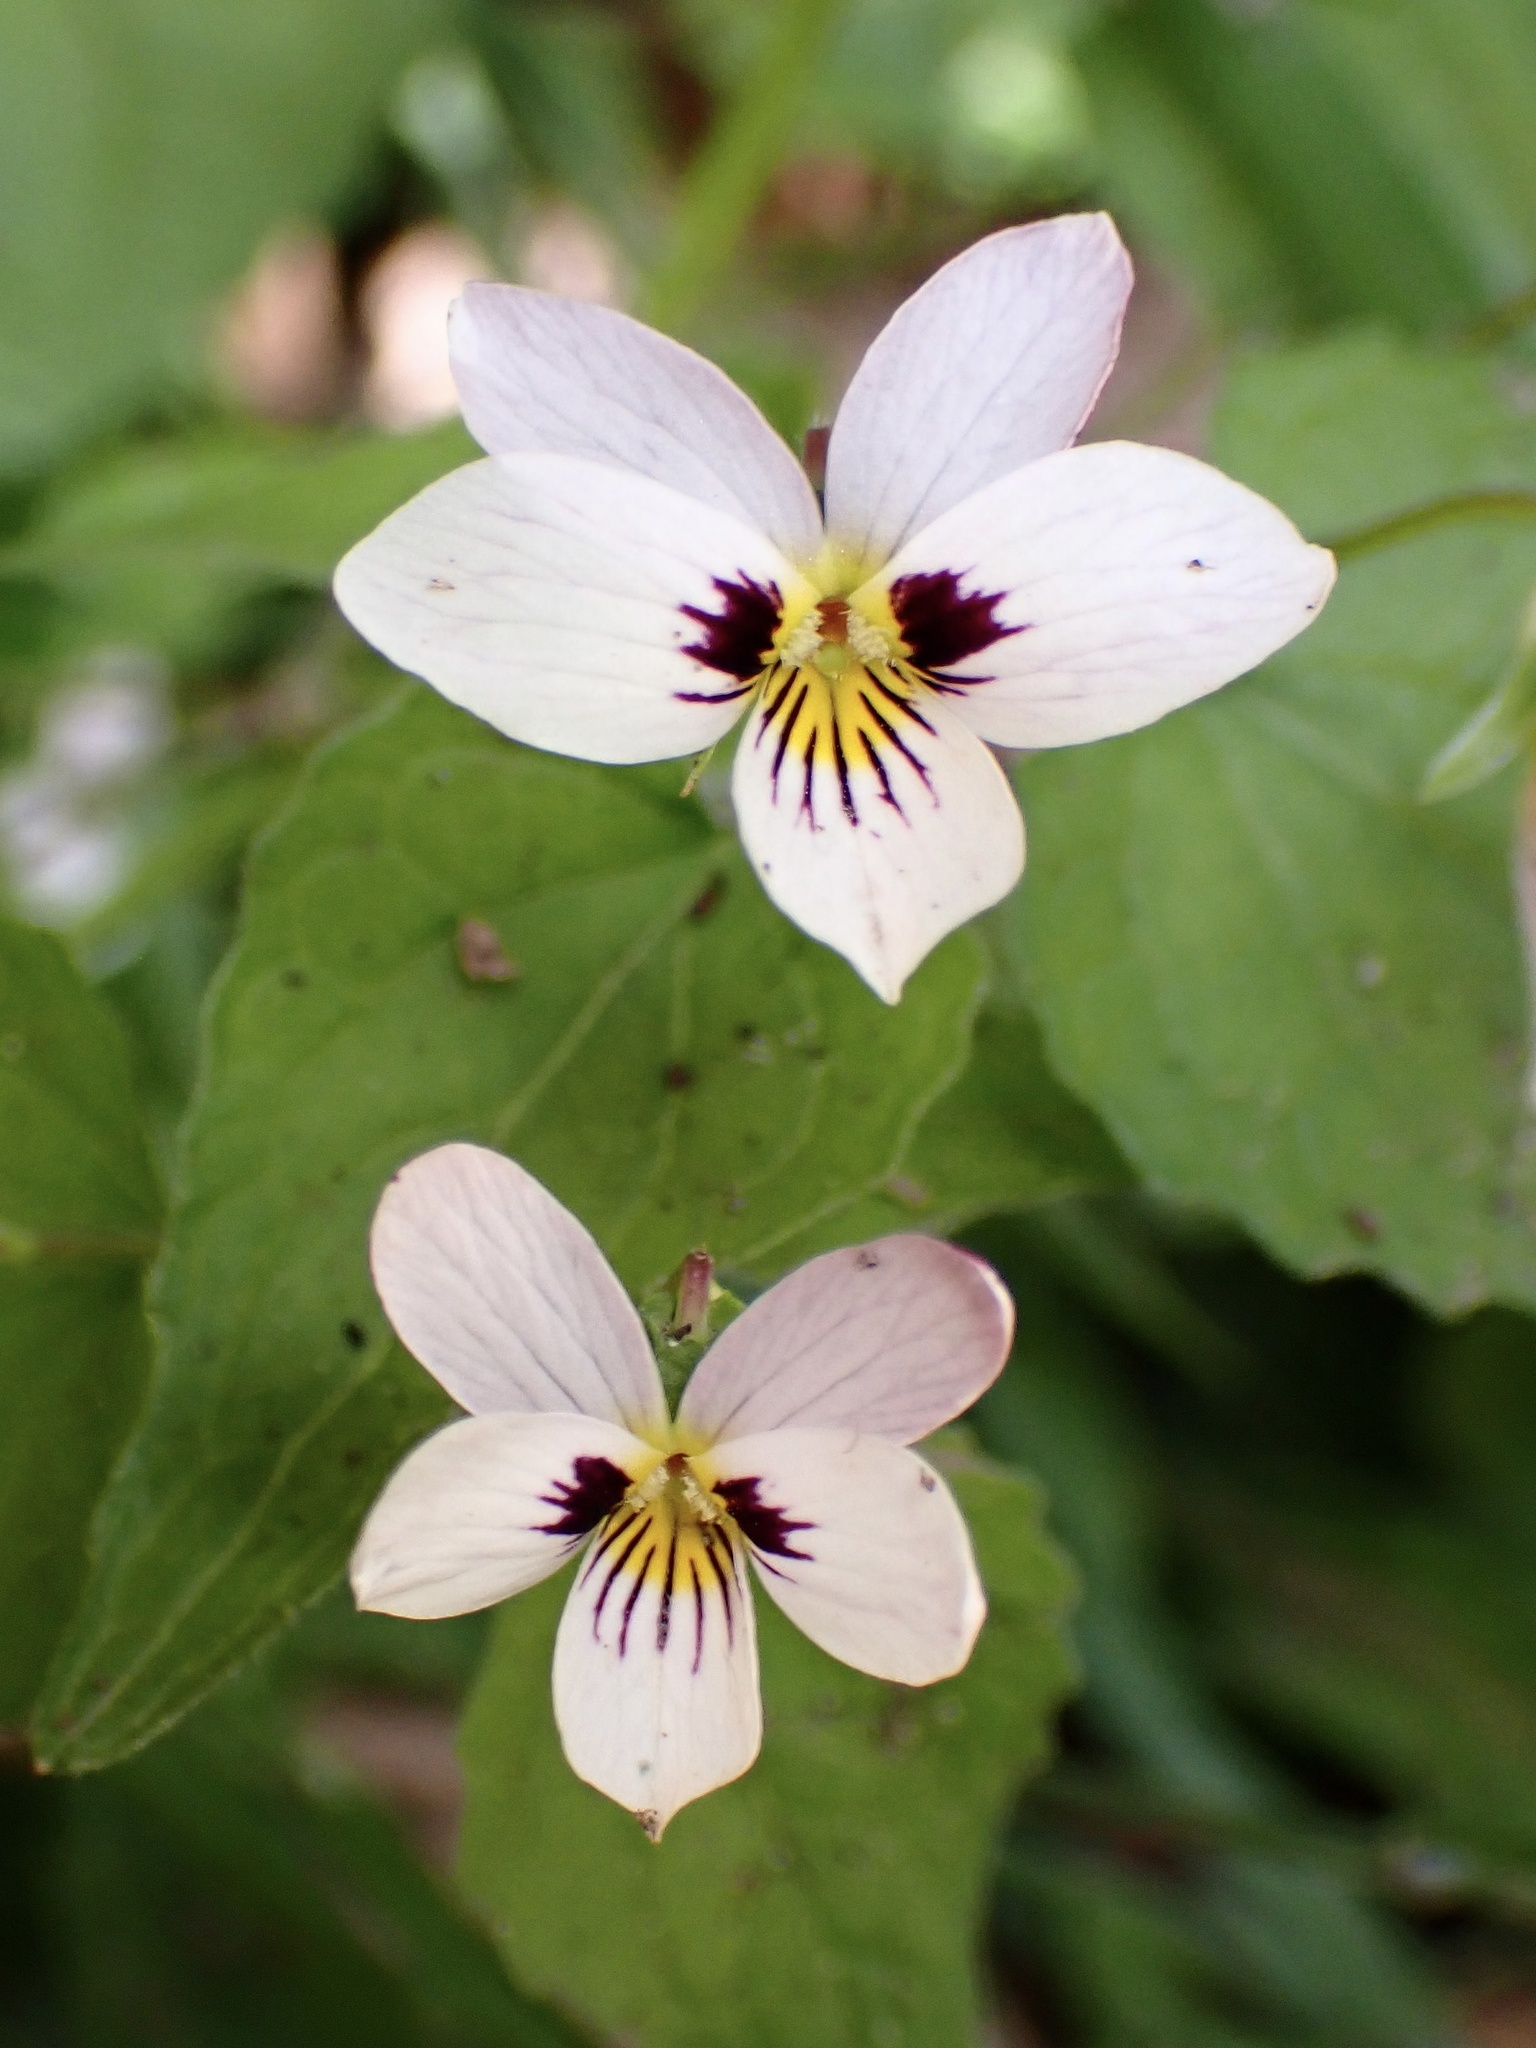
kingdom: Plantae
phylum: Tracheophyta
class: Magnoliopsida
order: Malpighiales
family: Violaceae
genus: Viola
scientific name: Viola ocellata
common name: Western heart's ease
